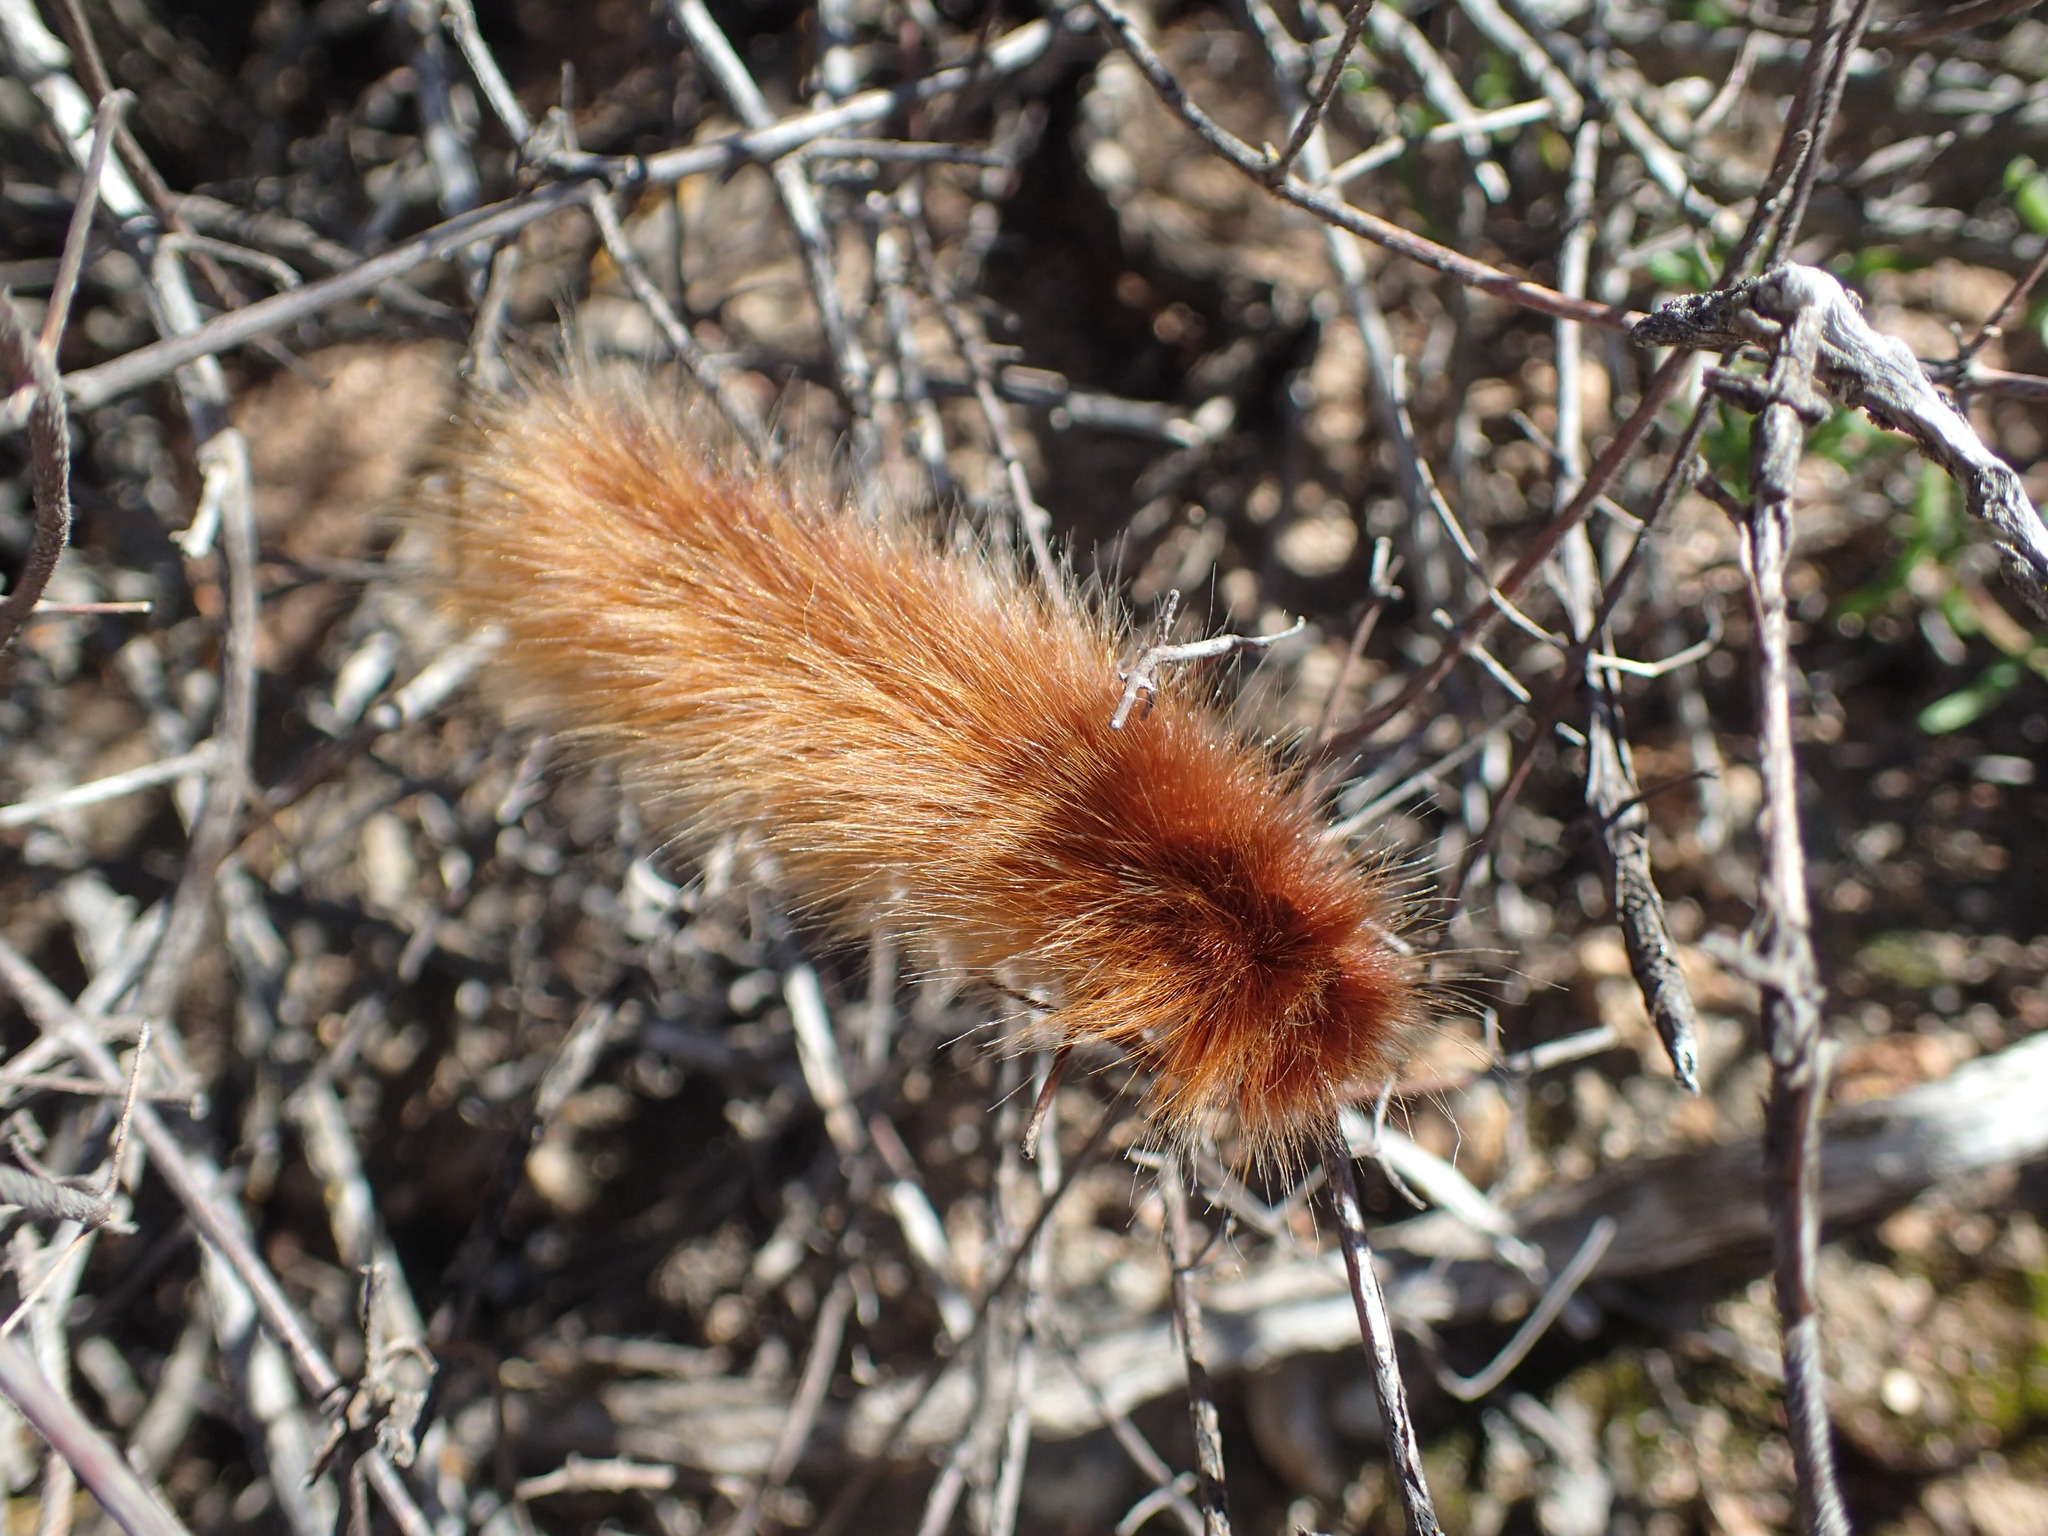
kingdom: Animalia
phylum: Arthropoda
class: Insecta
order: Lepidoptera
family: Lasiocampidae
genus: Mesocelis
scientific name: Mesocelis monticola
